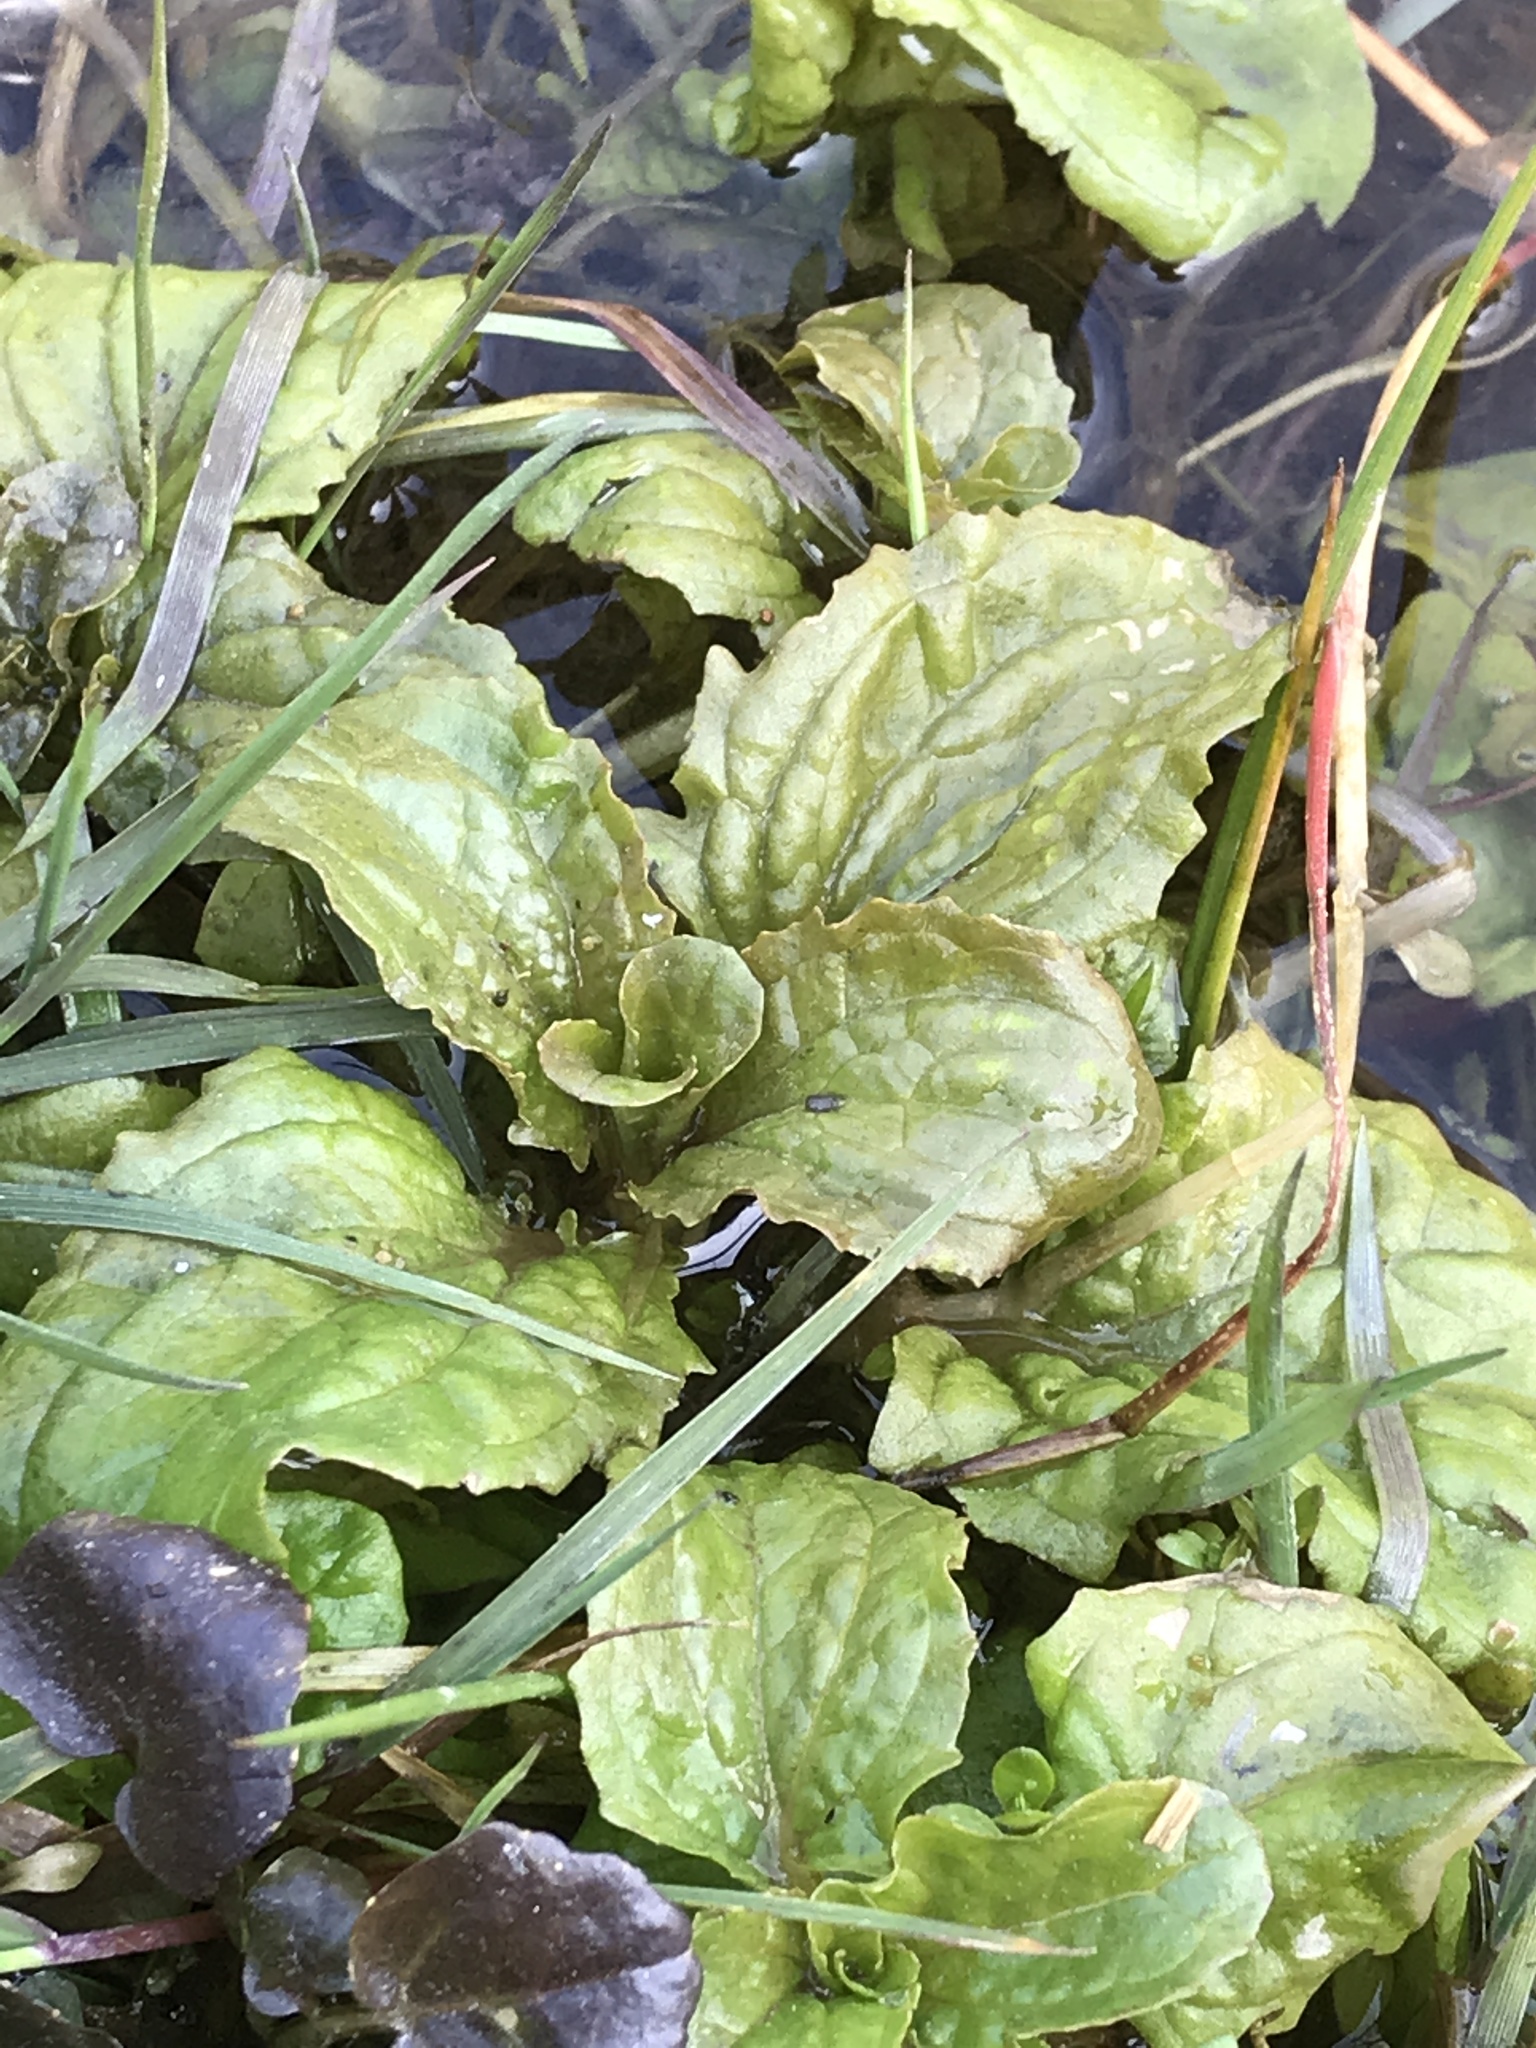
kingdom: Plantae
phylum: Tracheophyta
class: Magnoliopsida
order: Lamiales
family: Phrymaceae
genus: Erythranthe
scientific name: Erythranthe guttata
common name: Monkeyflower
